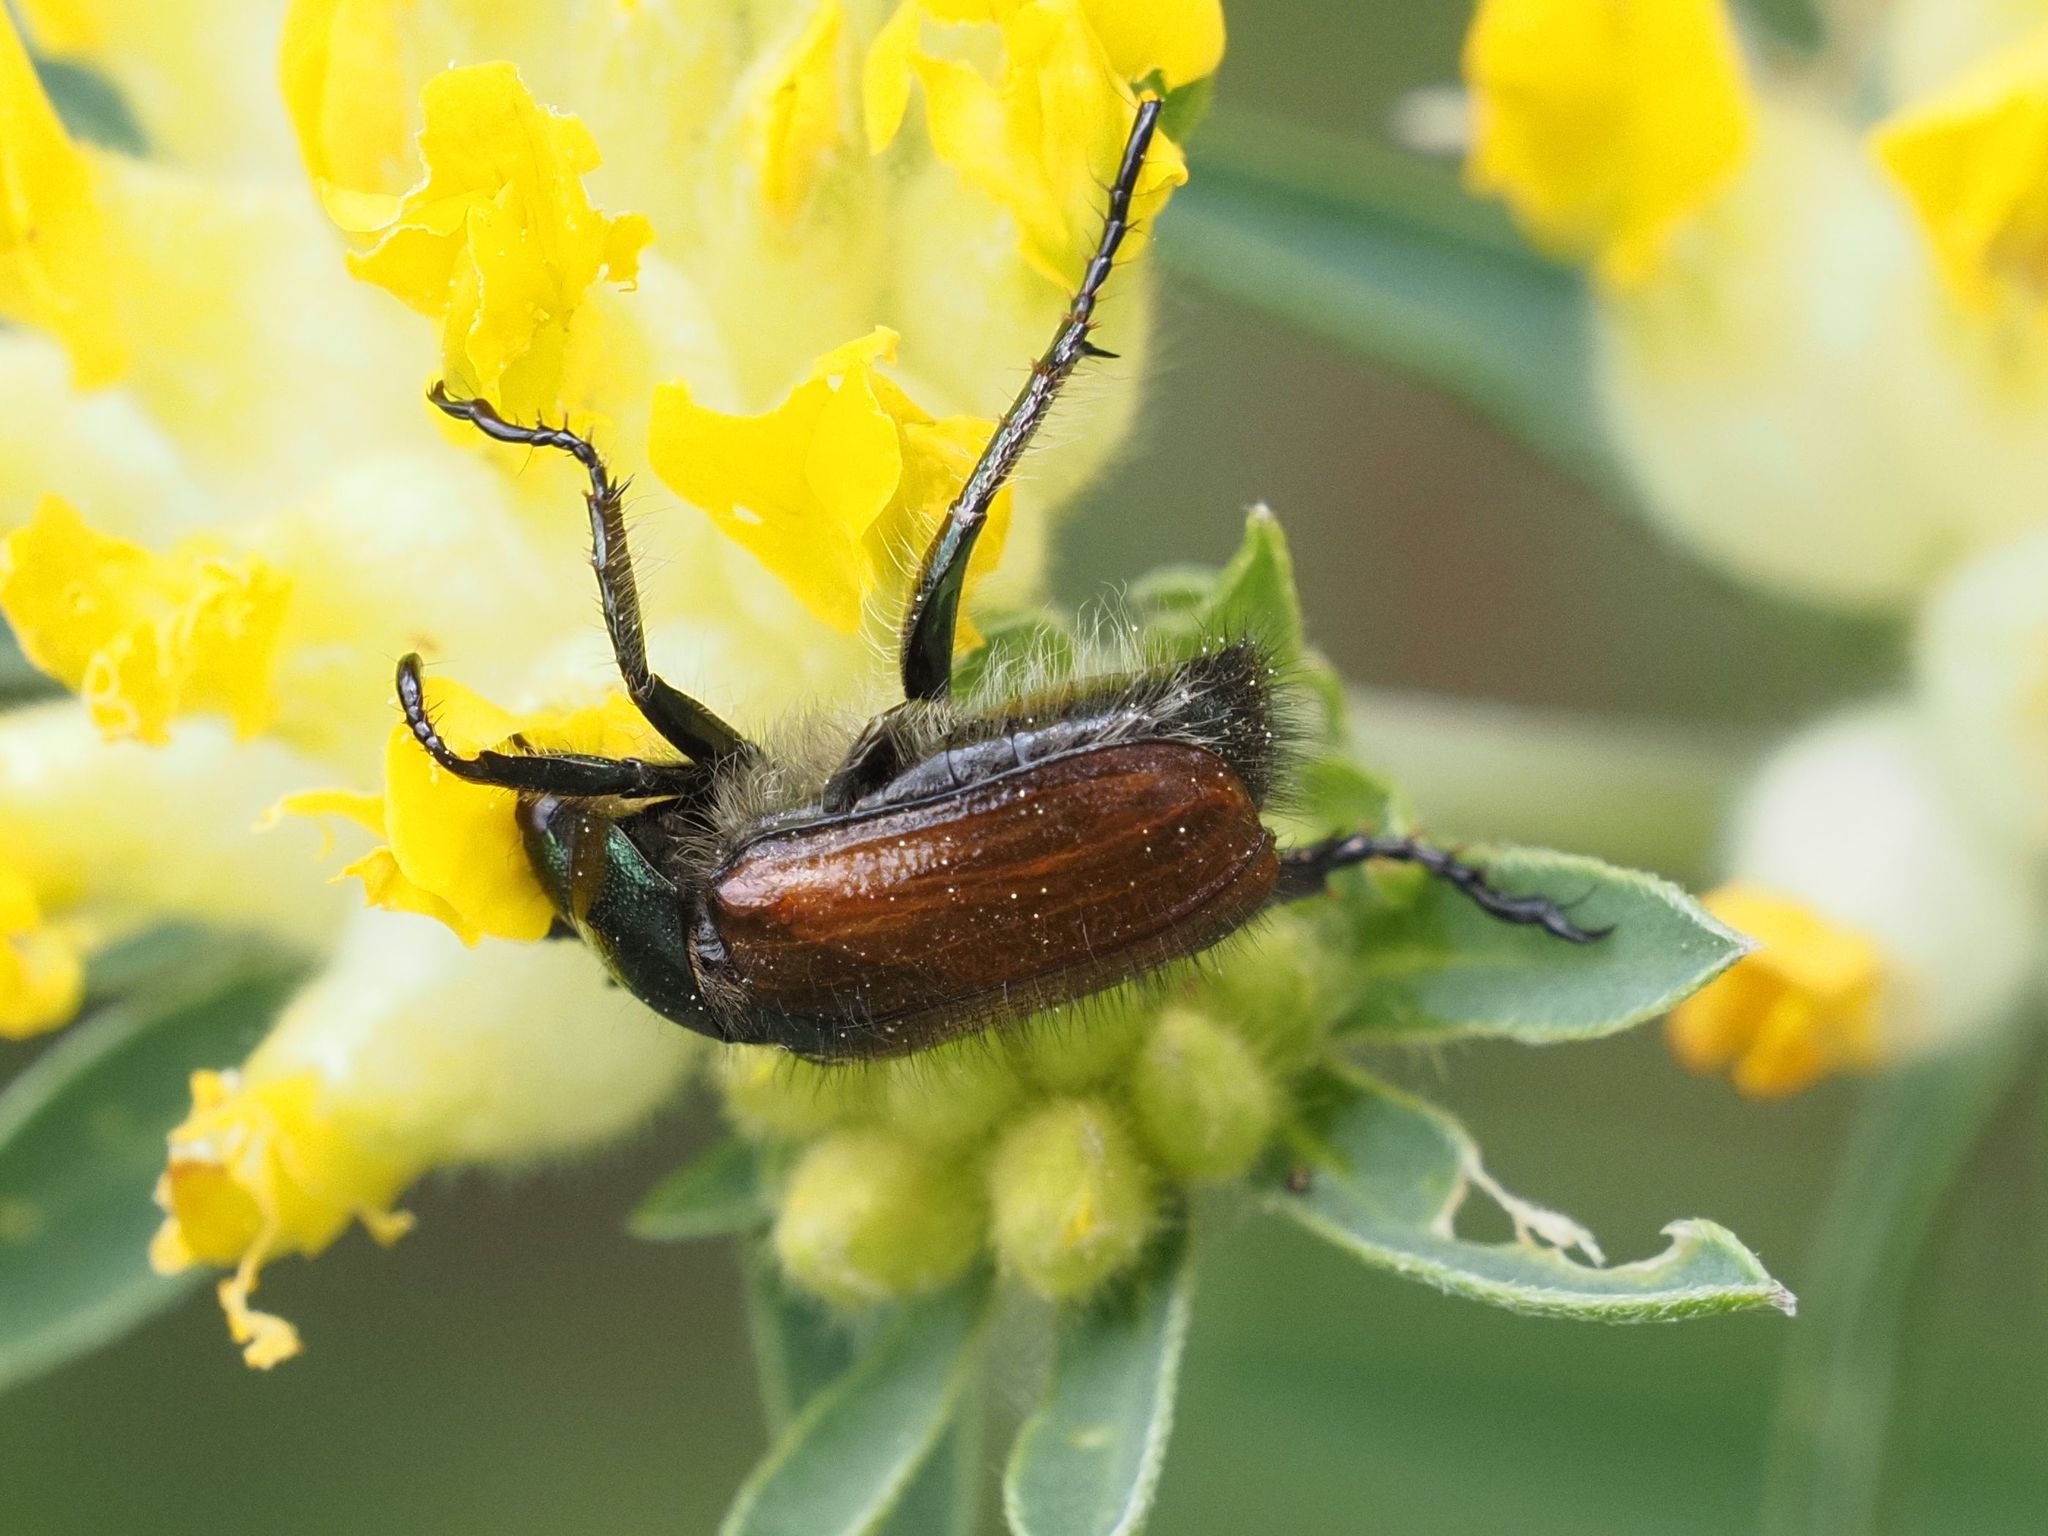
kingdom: Animalia
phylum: Arthropoda
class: Insecta
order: Coleoptera
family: Scarabaeidae
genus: Phyllopertha
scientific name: Phyllopertha horticola
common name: Garden chafer
